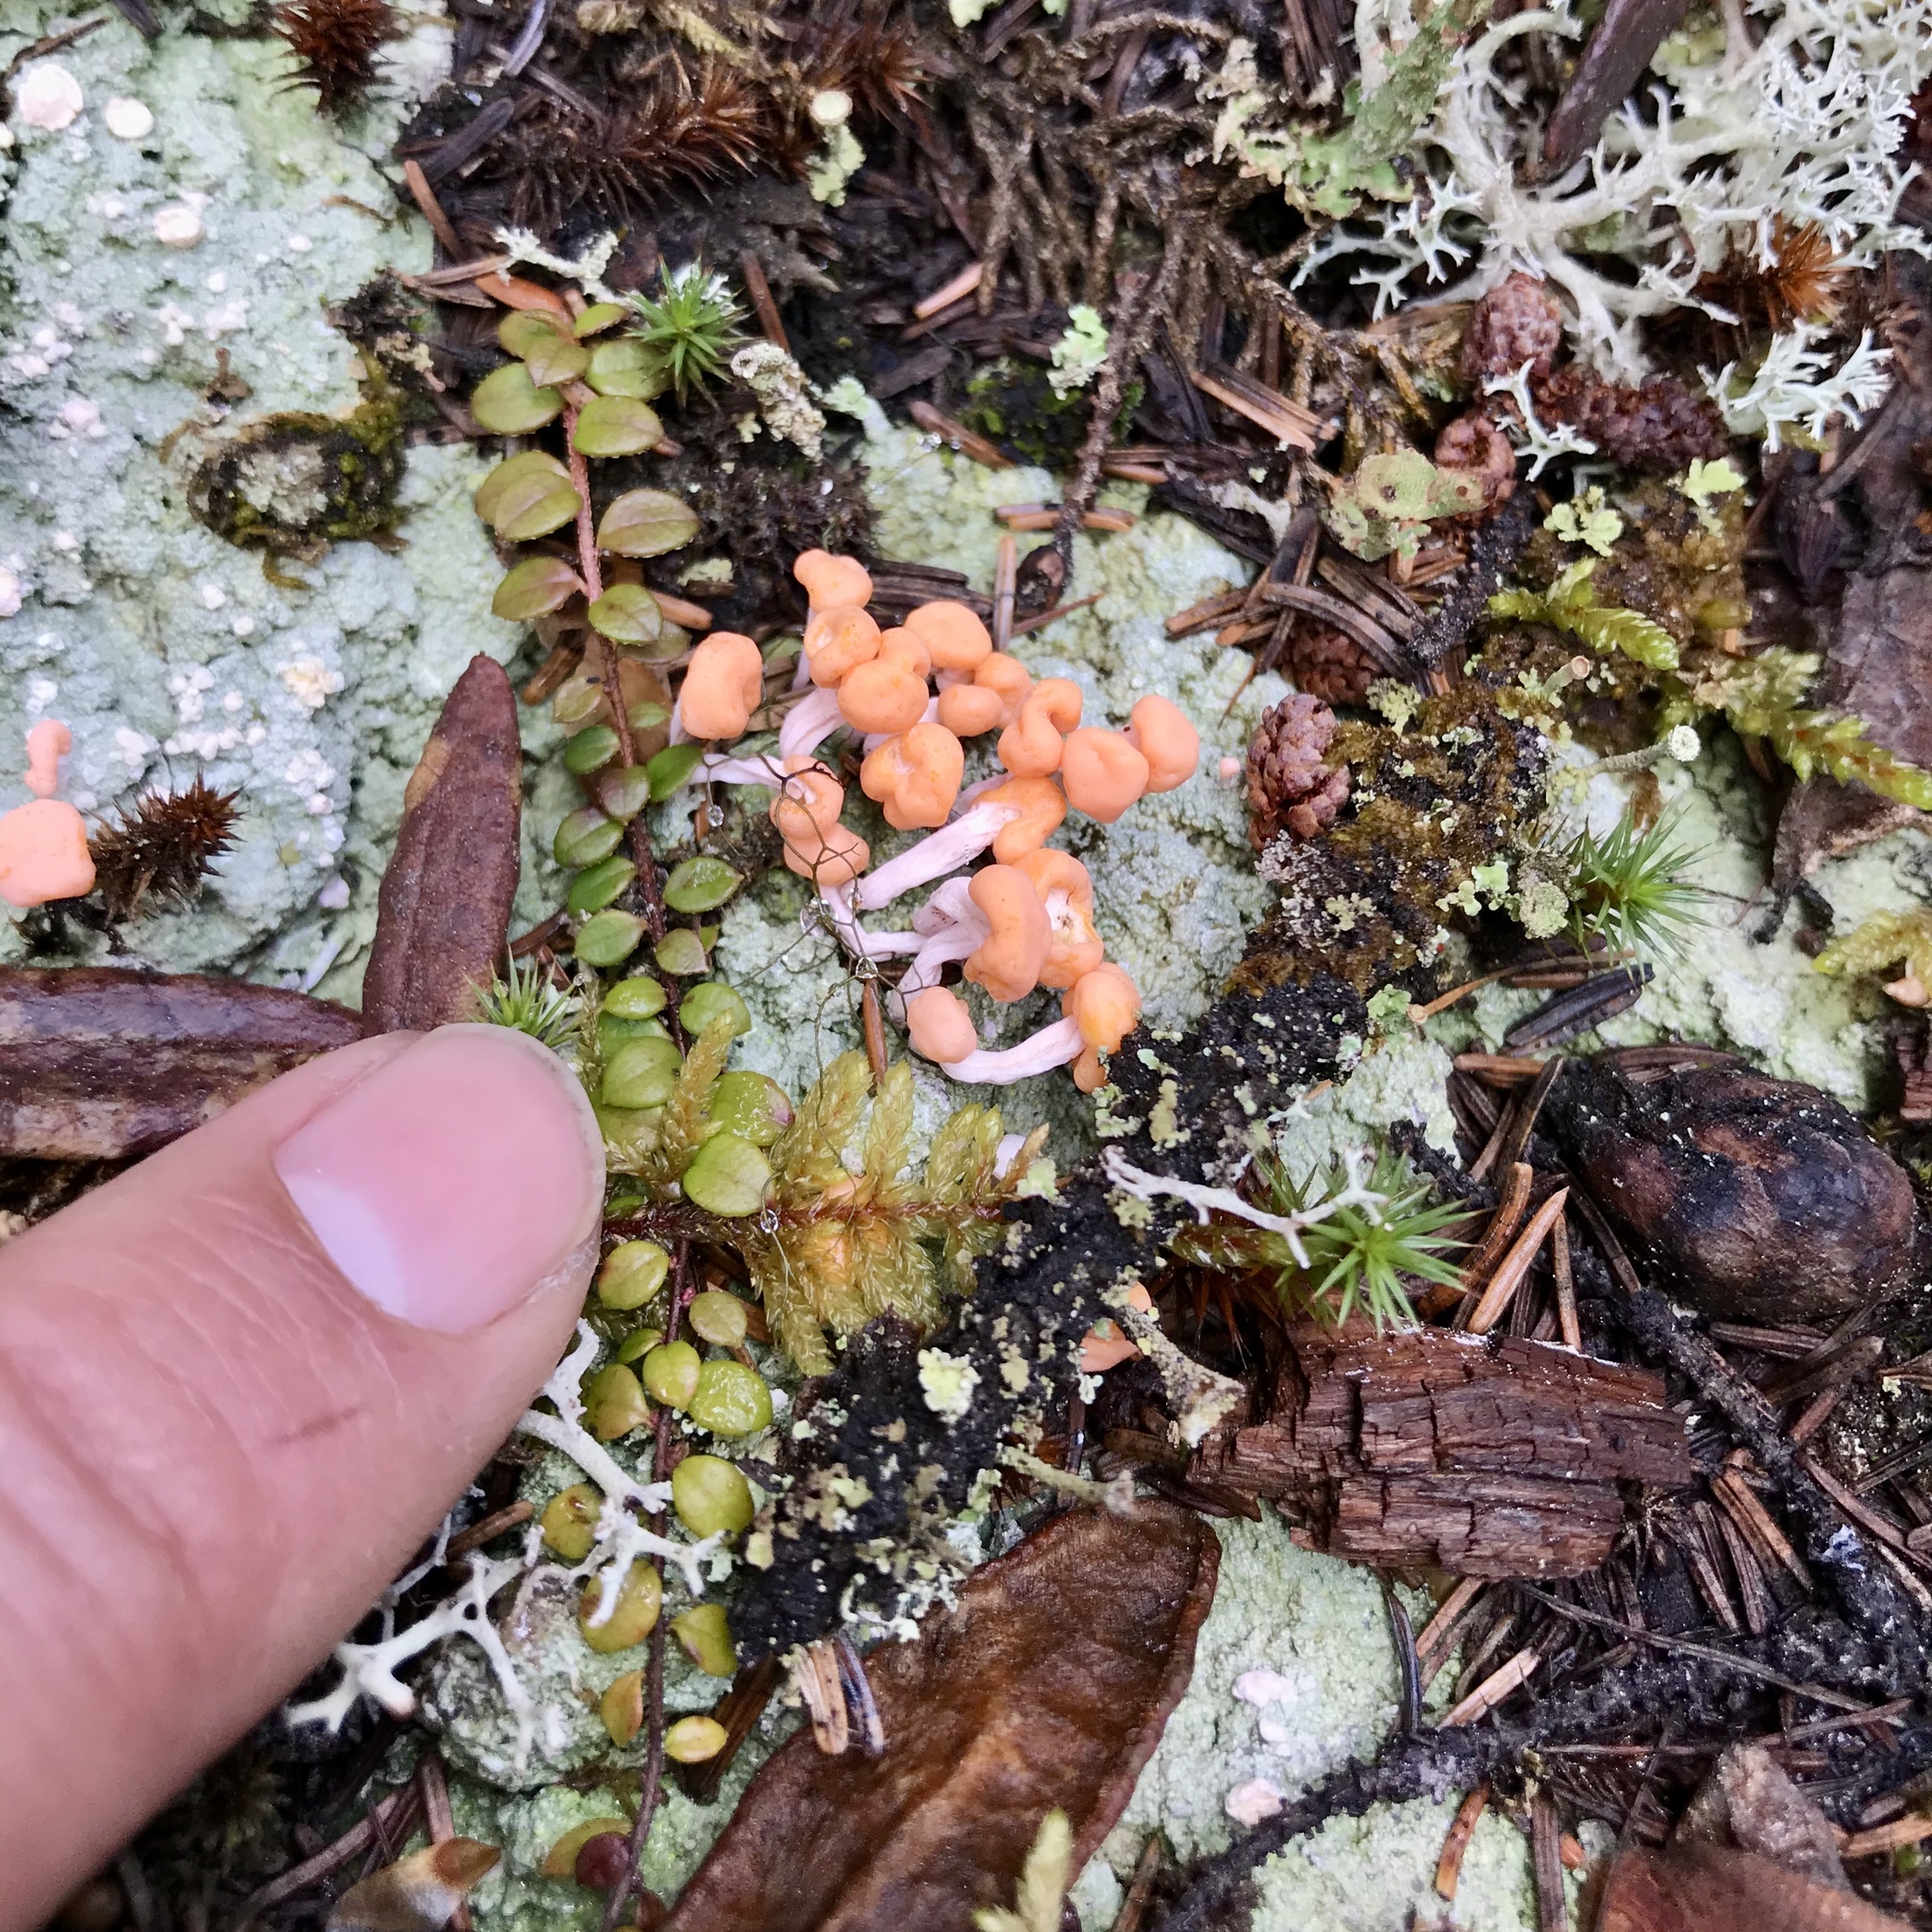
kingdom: Fungi
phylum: Ascomycota
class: Lecanoromycetes
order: Pertusariales
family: Icmadophilaceae
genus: Dibaeis
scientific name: Dibaeis baeomyces
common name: Pink earth lichen
